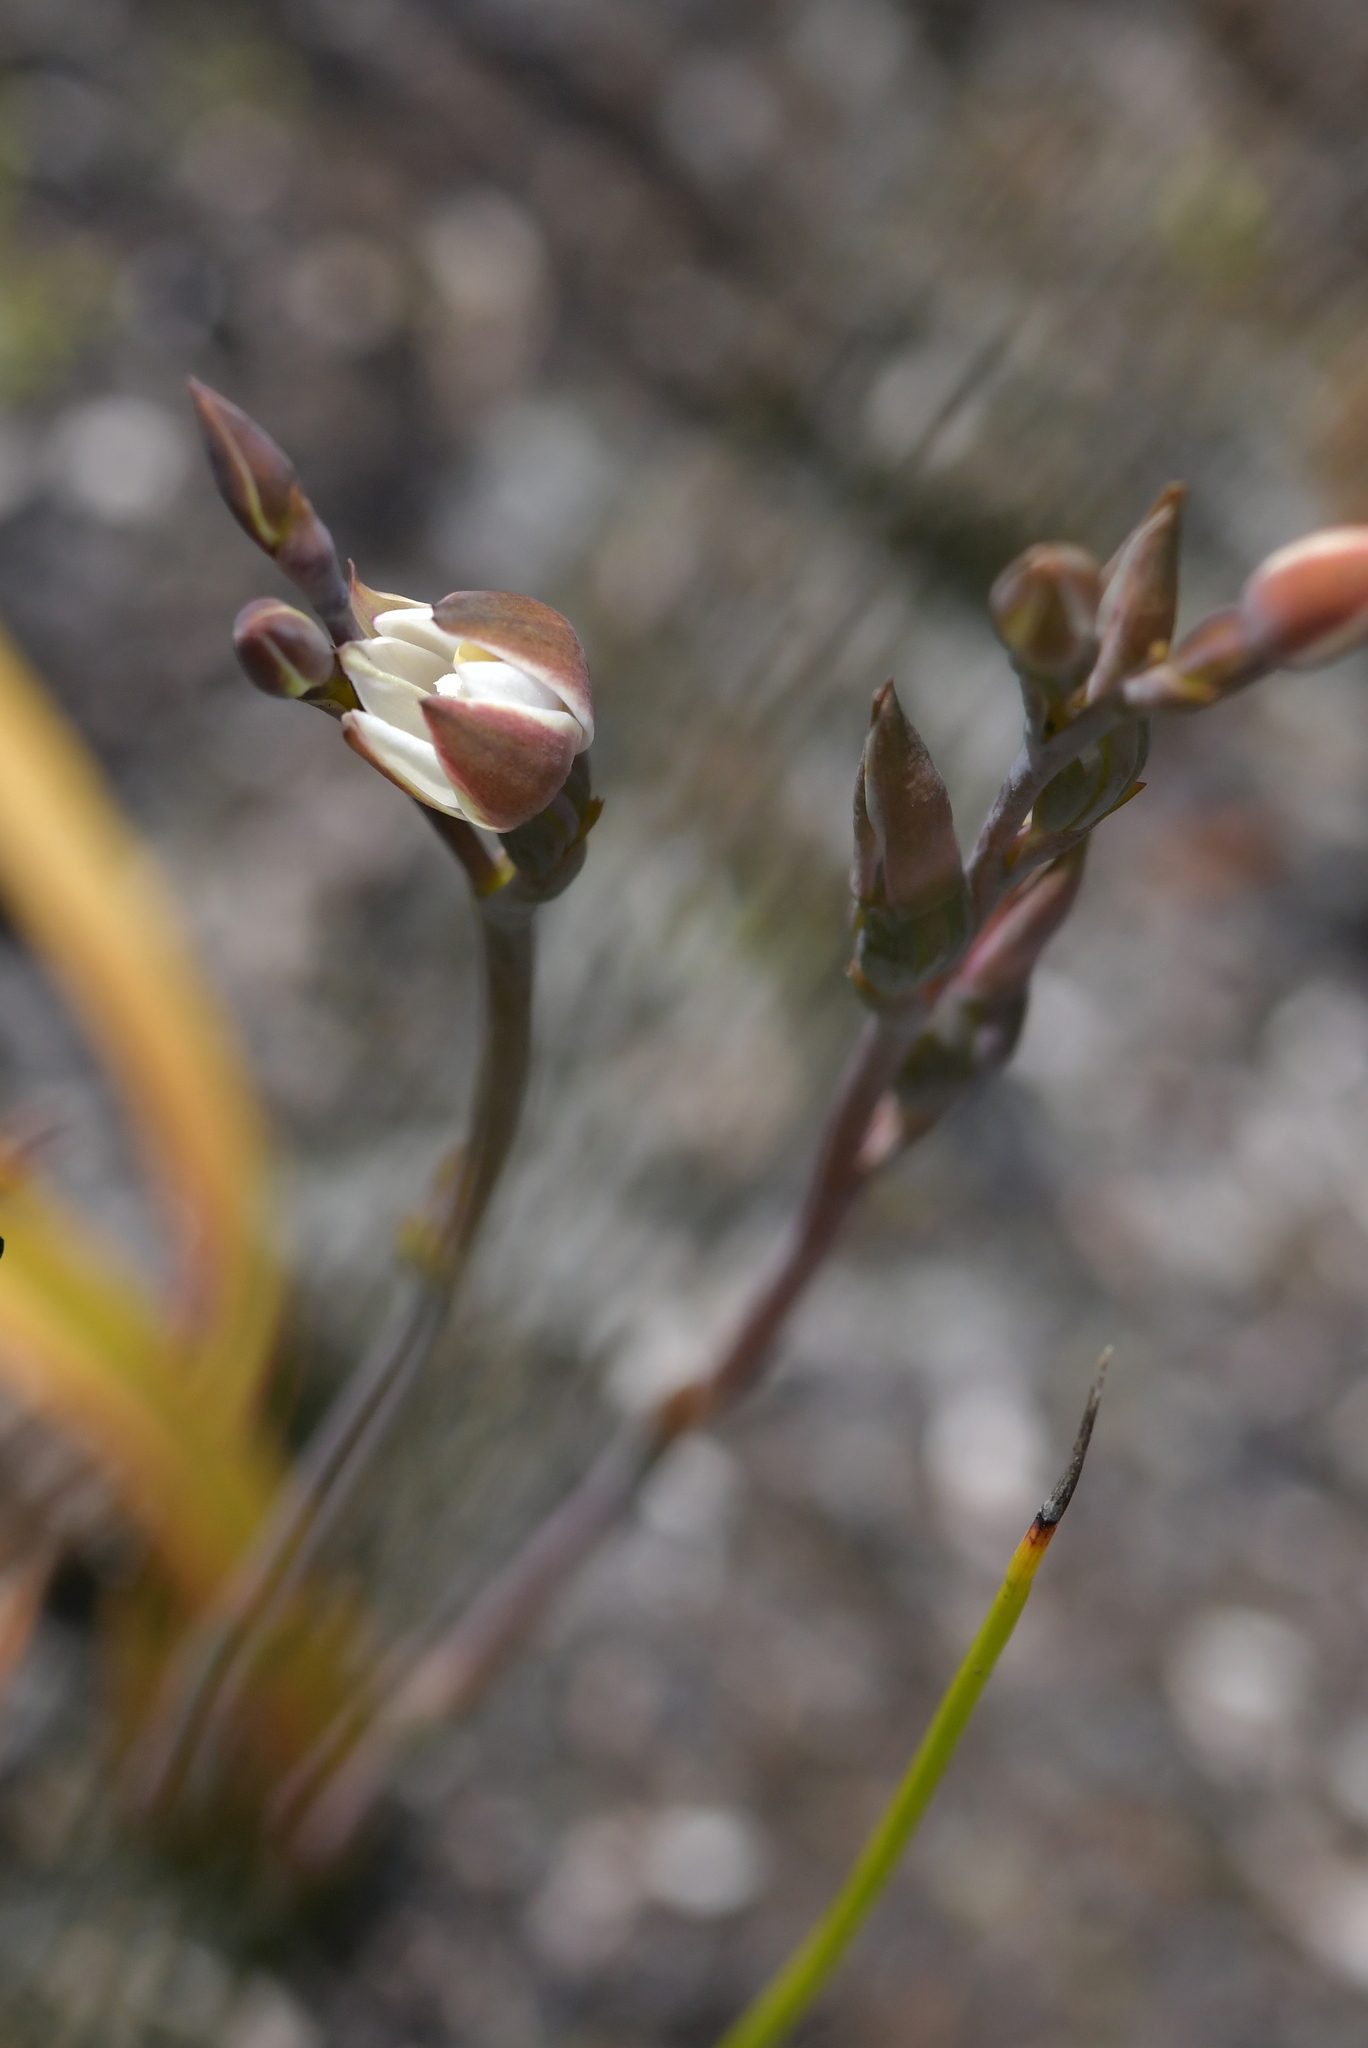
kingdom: Plantae
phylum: Tracheophyta
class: Liliopsida
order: Asparagales
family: Orchidaceae
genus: Thelymitra
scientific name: Thelymitra longifolia
